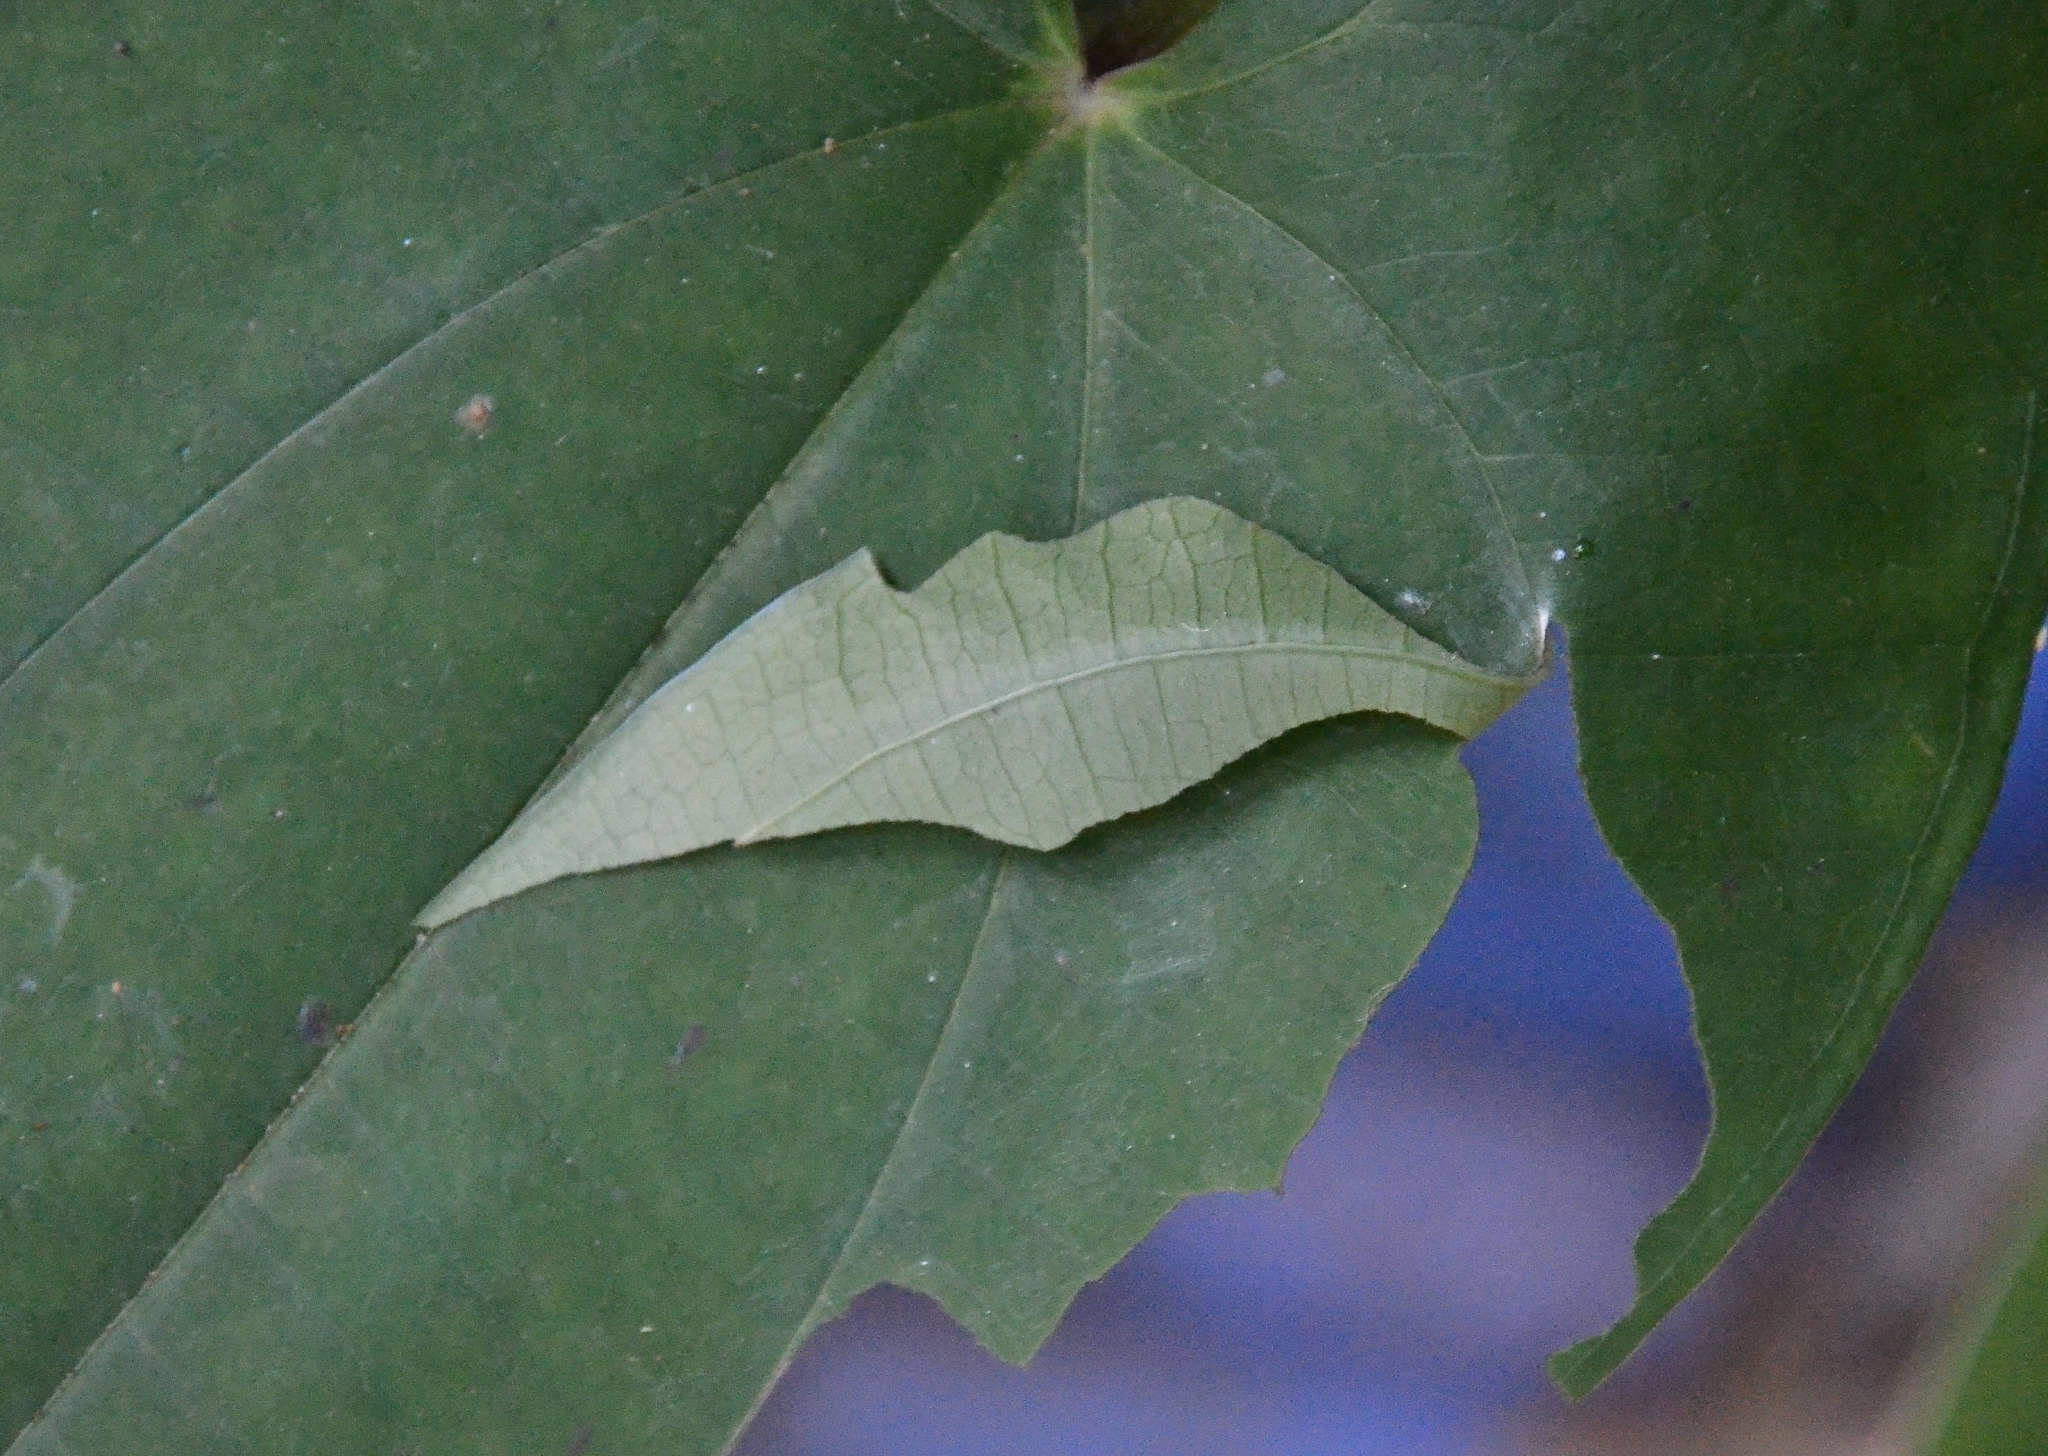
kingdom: Animalia
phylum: Arthropoda
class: Insecta
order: Lepidoptera
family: Hesperiidae
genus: Tagiades
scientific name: Tagiades litigiosa
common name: Water snow flat
